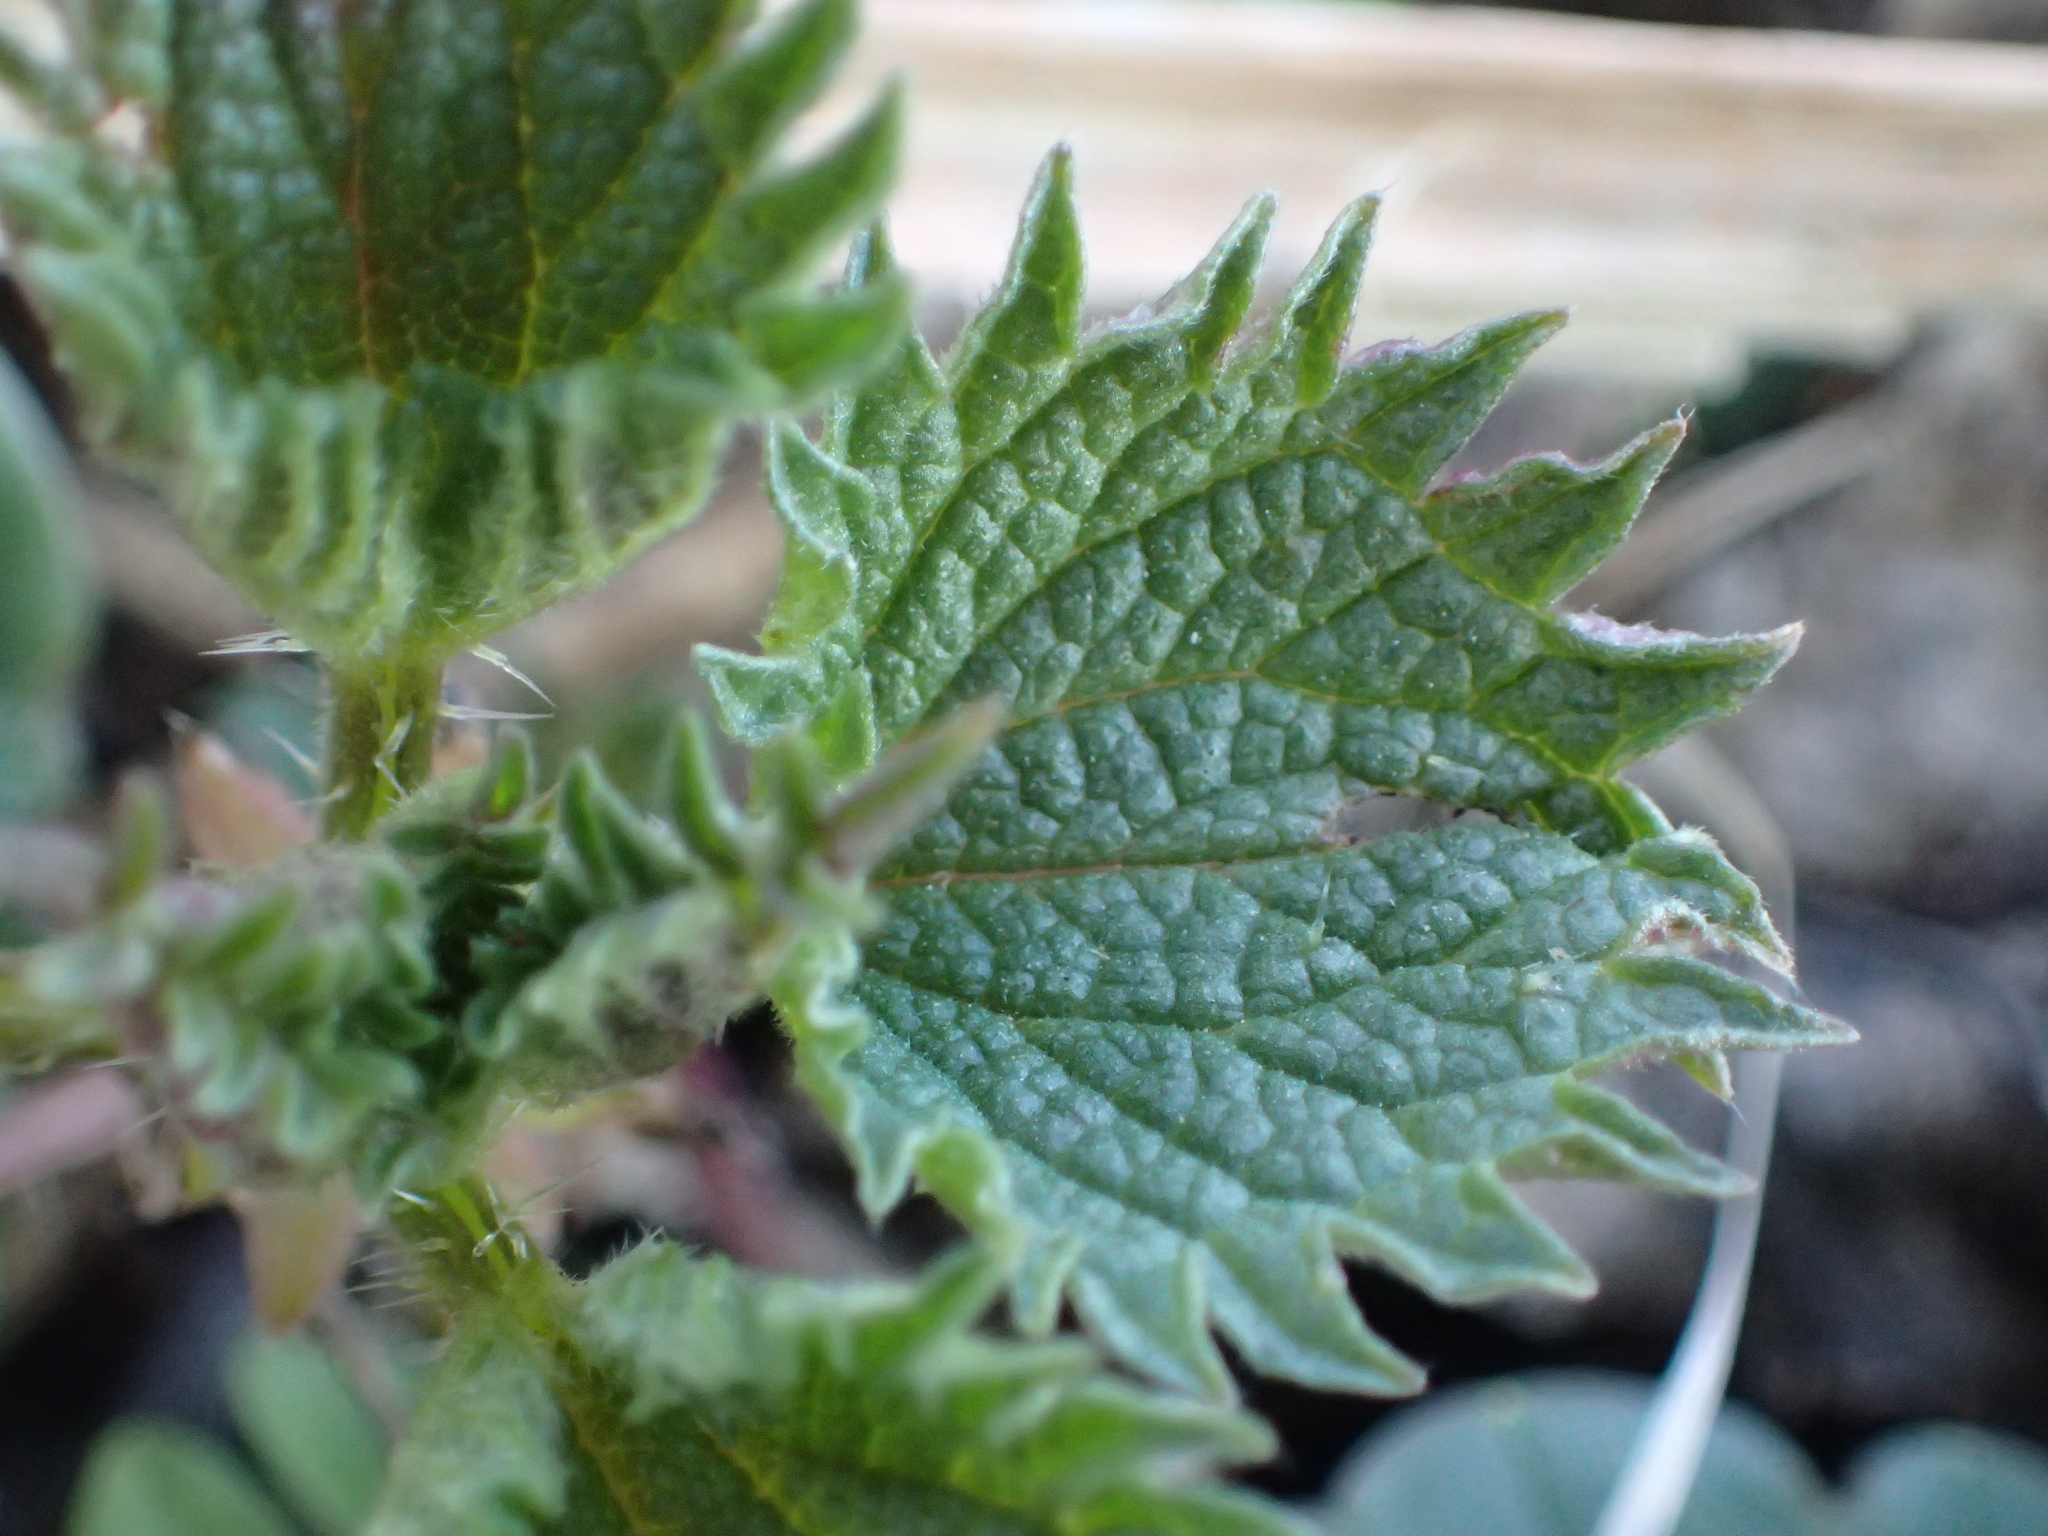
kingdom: Plantae
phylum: Tracheophyta
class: Magnoliopsida
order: Rosales
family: Urticaceae
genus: Urtica
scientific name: Urtica dioica
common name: Common nettle
